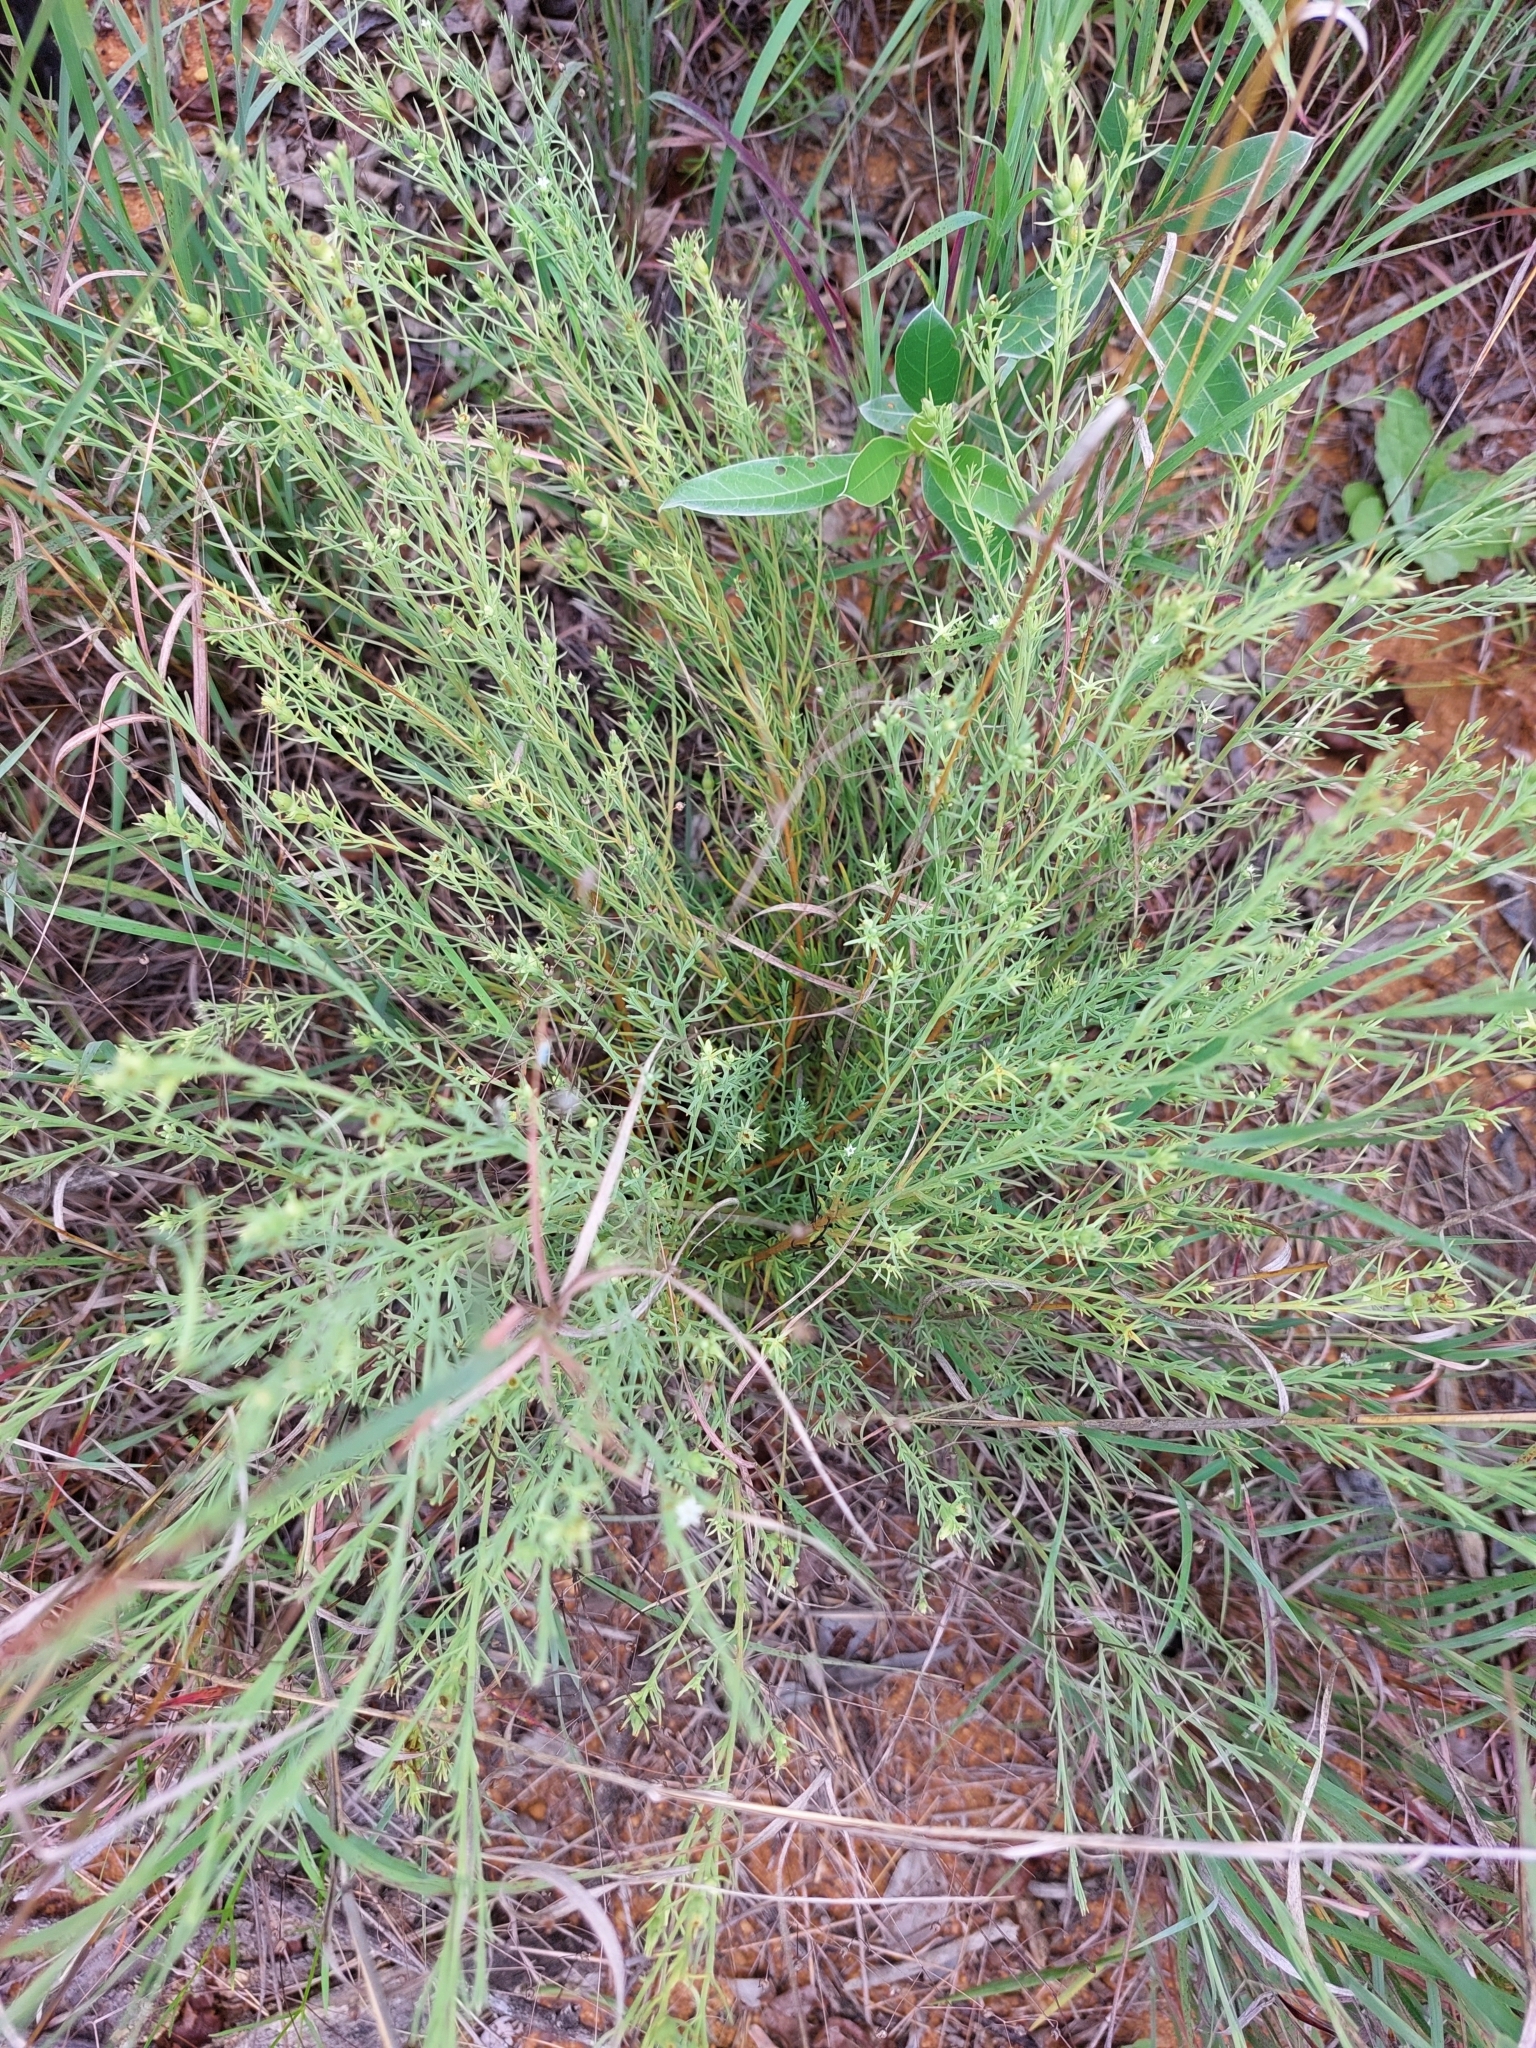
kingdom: Plantae
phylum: Tracheophyta
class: Magnoliopsida
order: Santalales
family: Thesiaceae
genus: Thesium
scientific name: Thesium celatum
